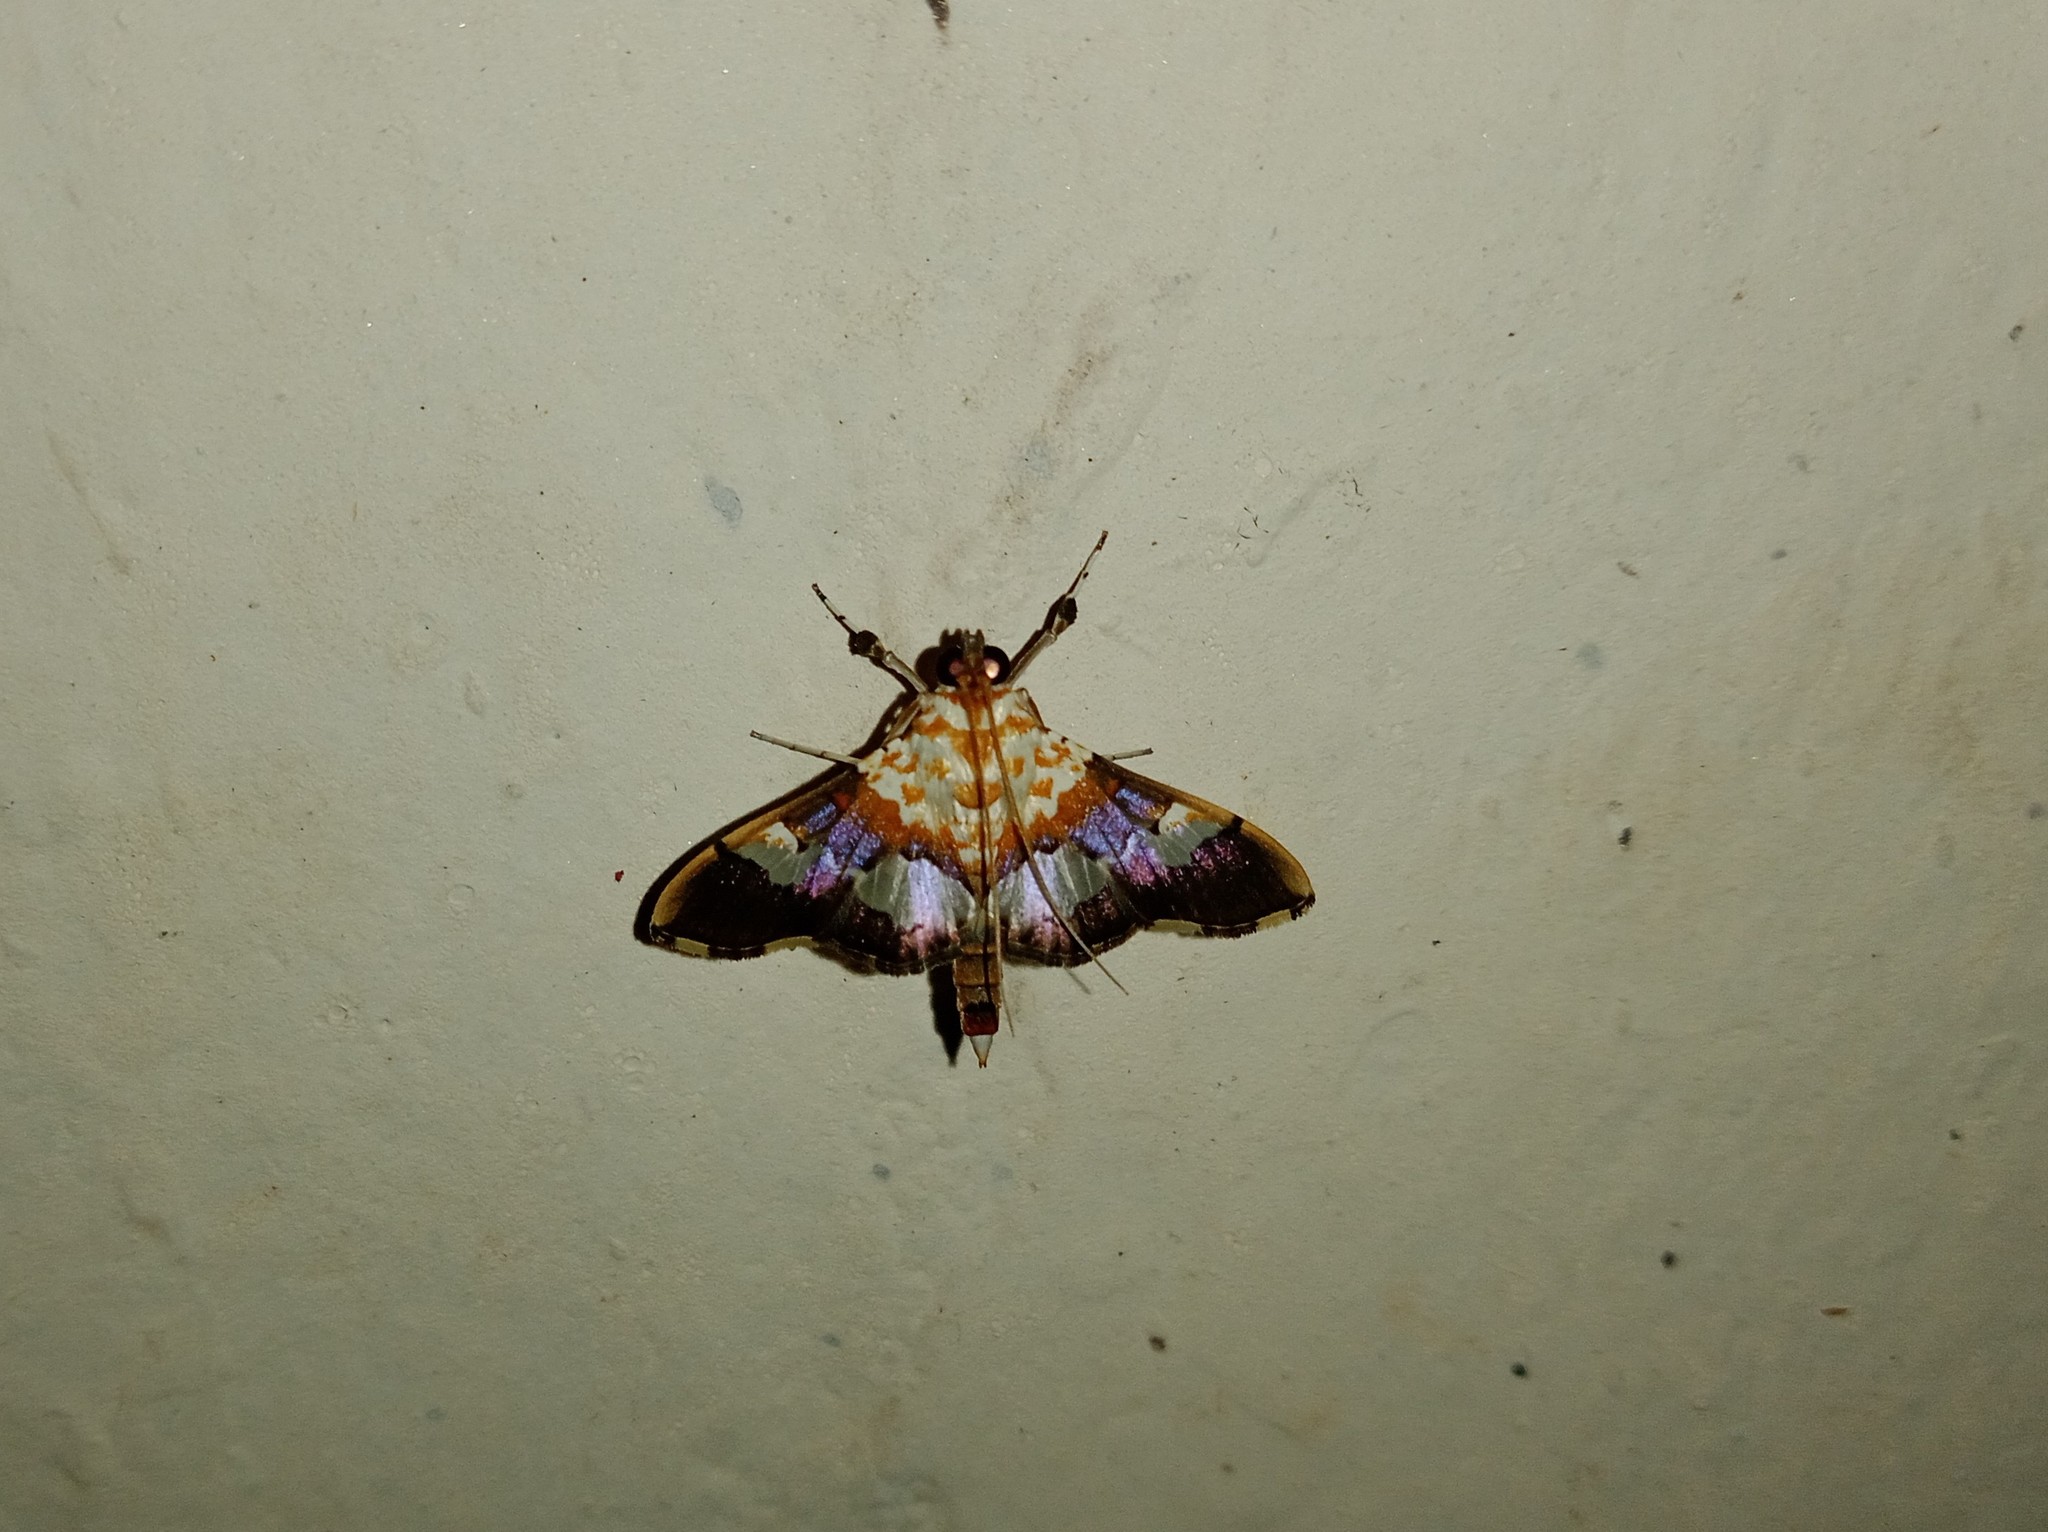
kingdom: Animalia
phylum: Arthropoda
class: Insecta
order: Lepidoptera
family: Crambidae
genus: Aetholix
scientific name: Aetholix flavibasalis
